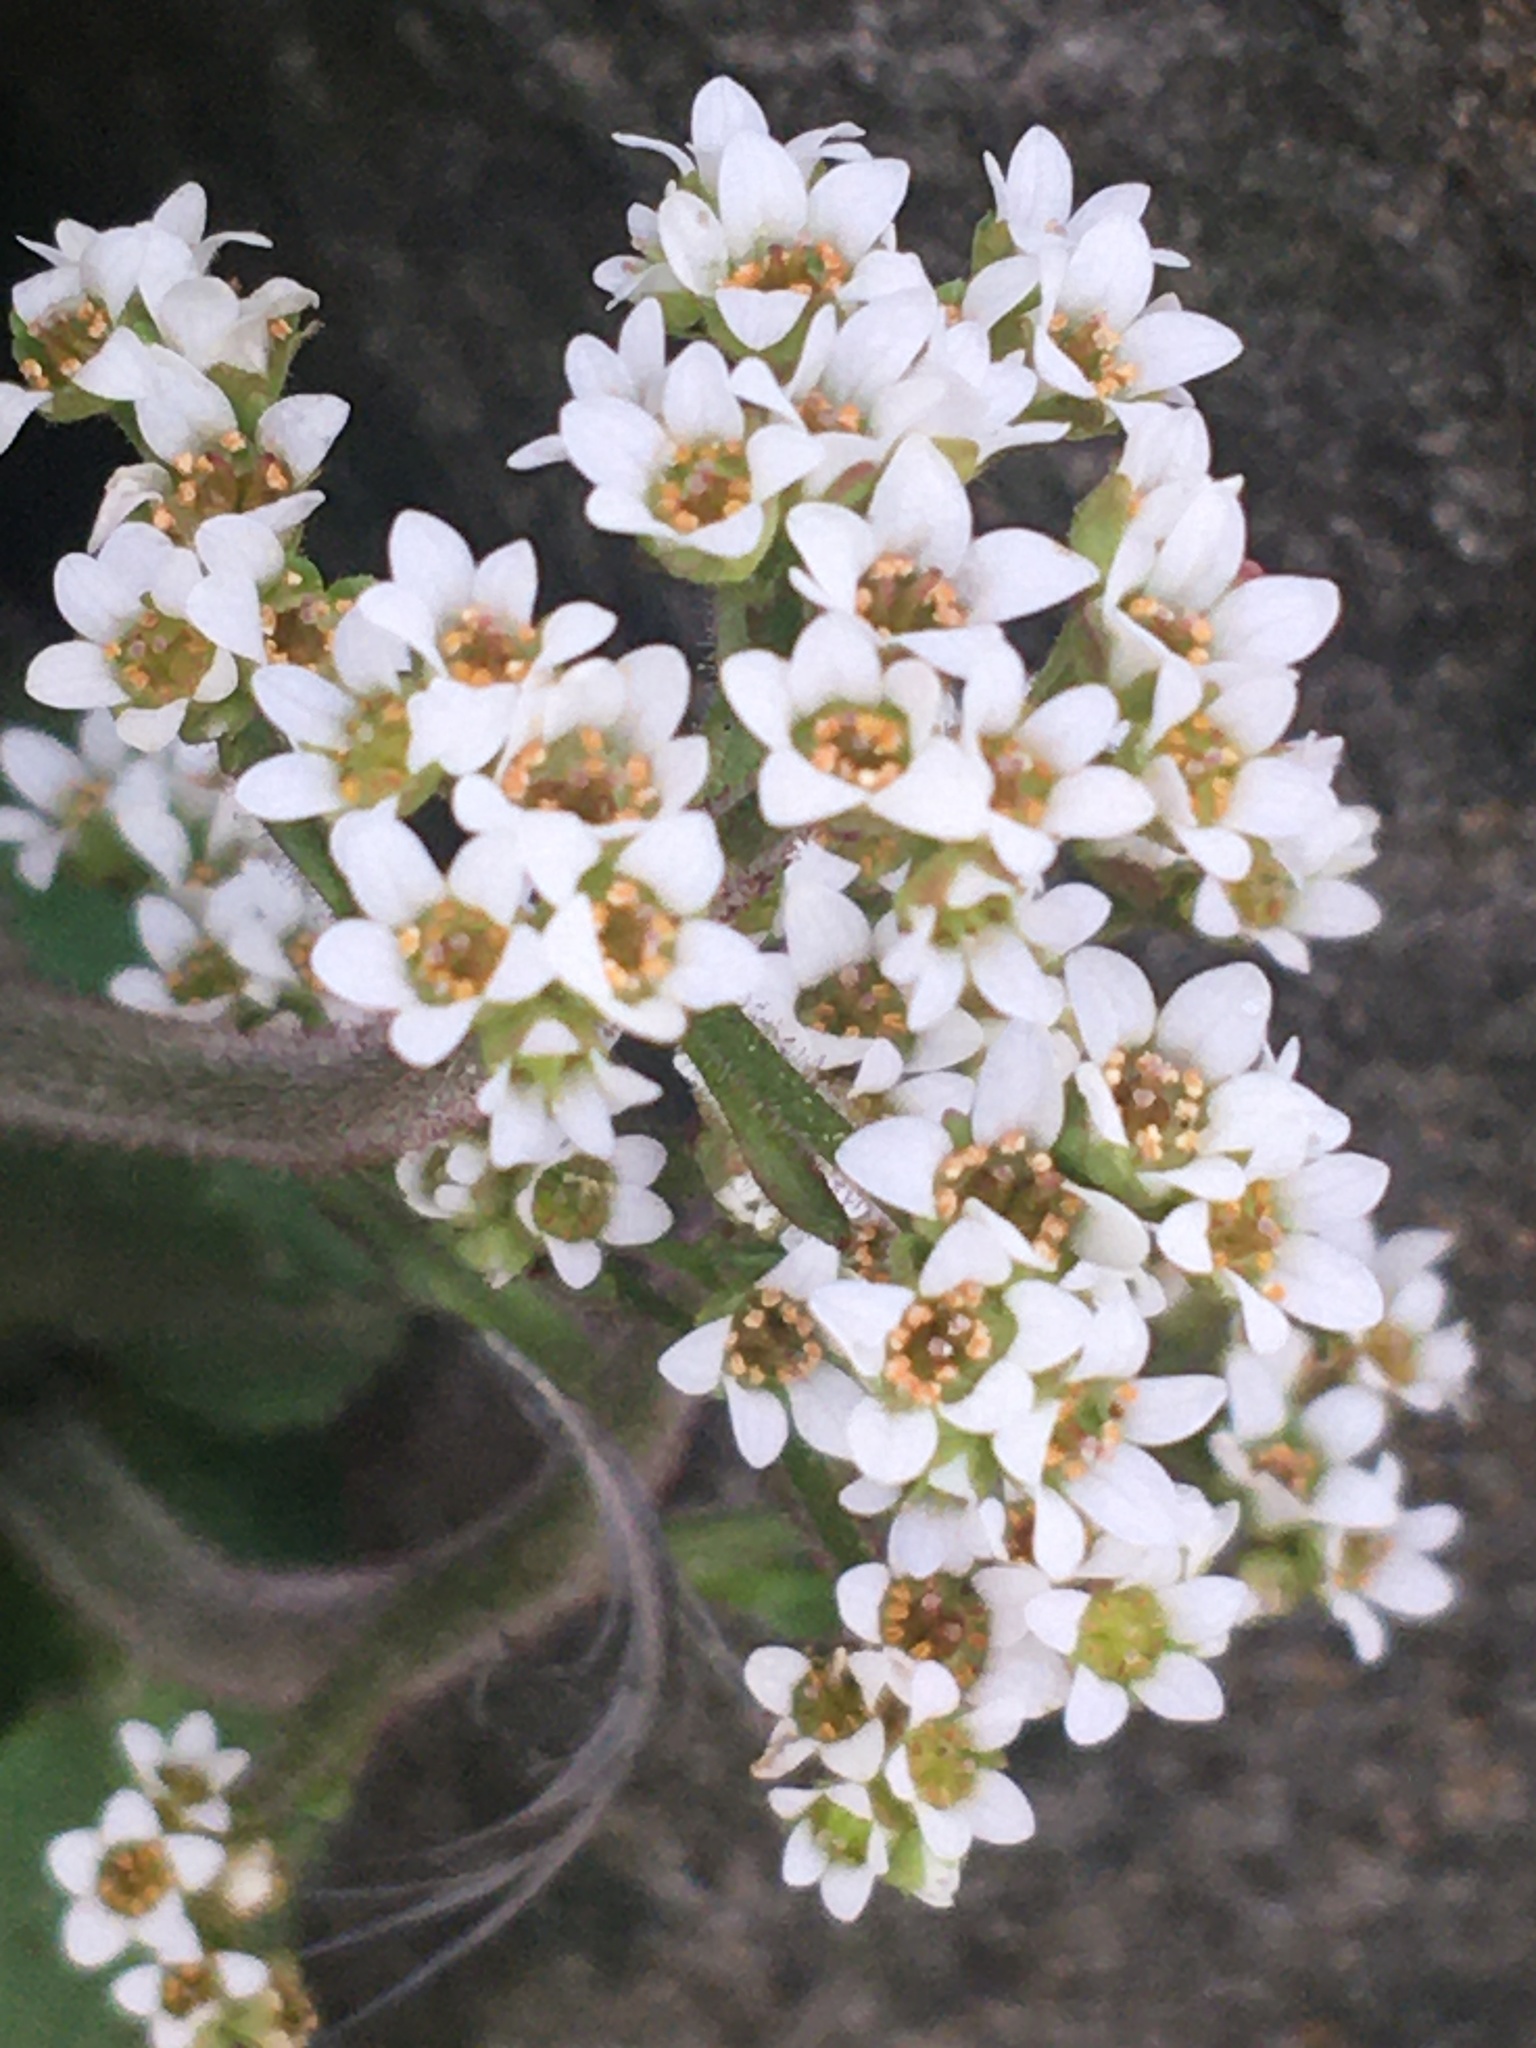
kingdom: Plantae
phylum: Tracheophyta
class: Magnoliopsida
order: Saxifragales
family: Saxifragaceae
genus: Micranthes
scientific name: Micranthes virginiensis
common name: Early saxifrage
